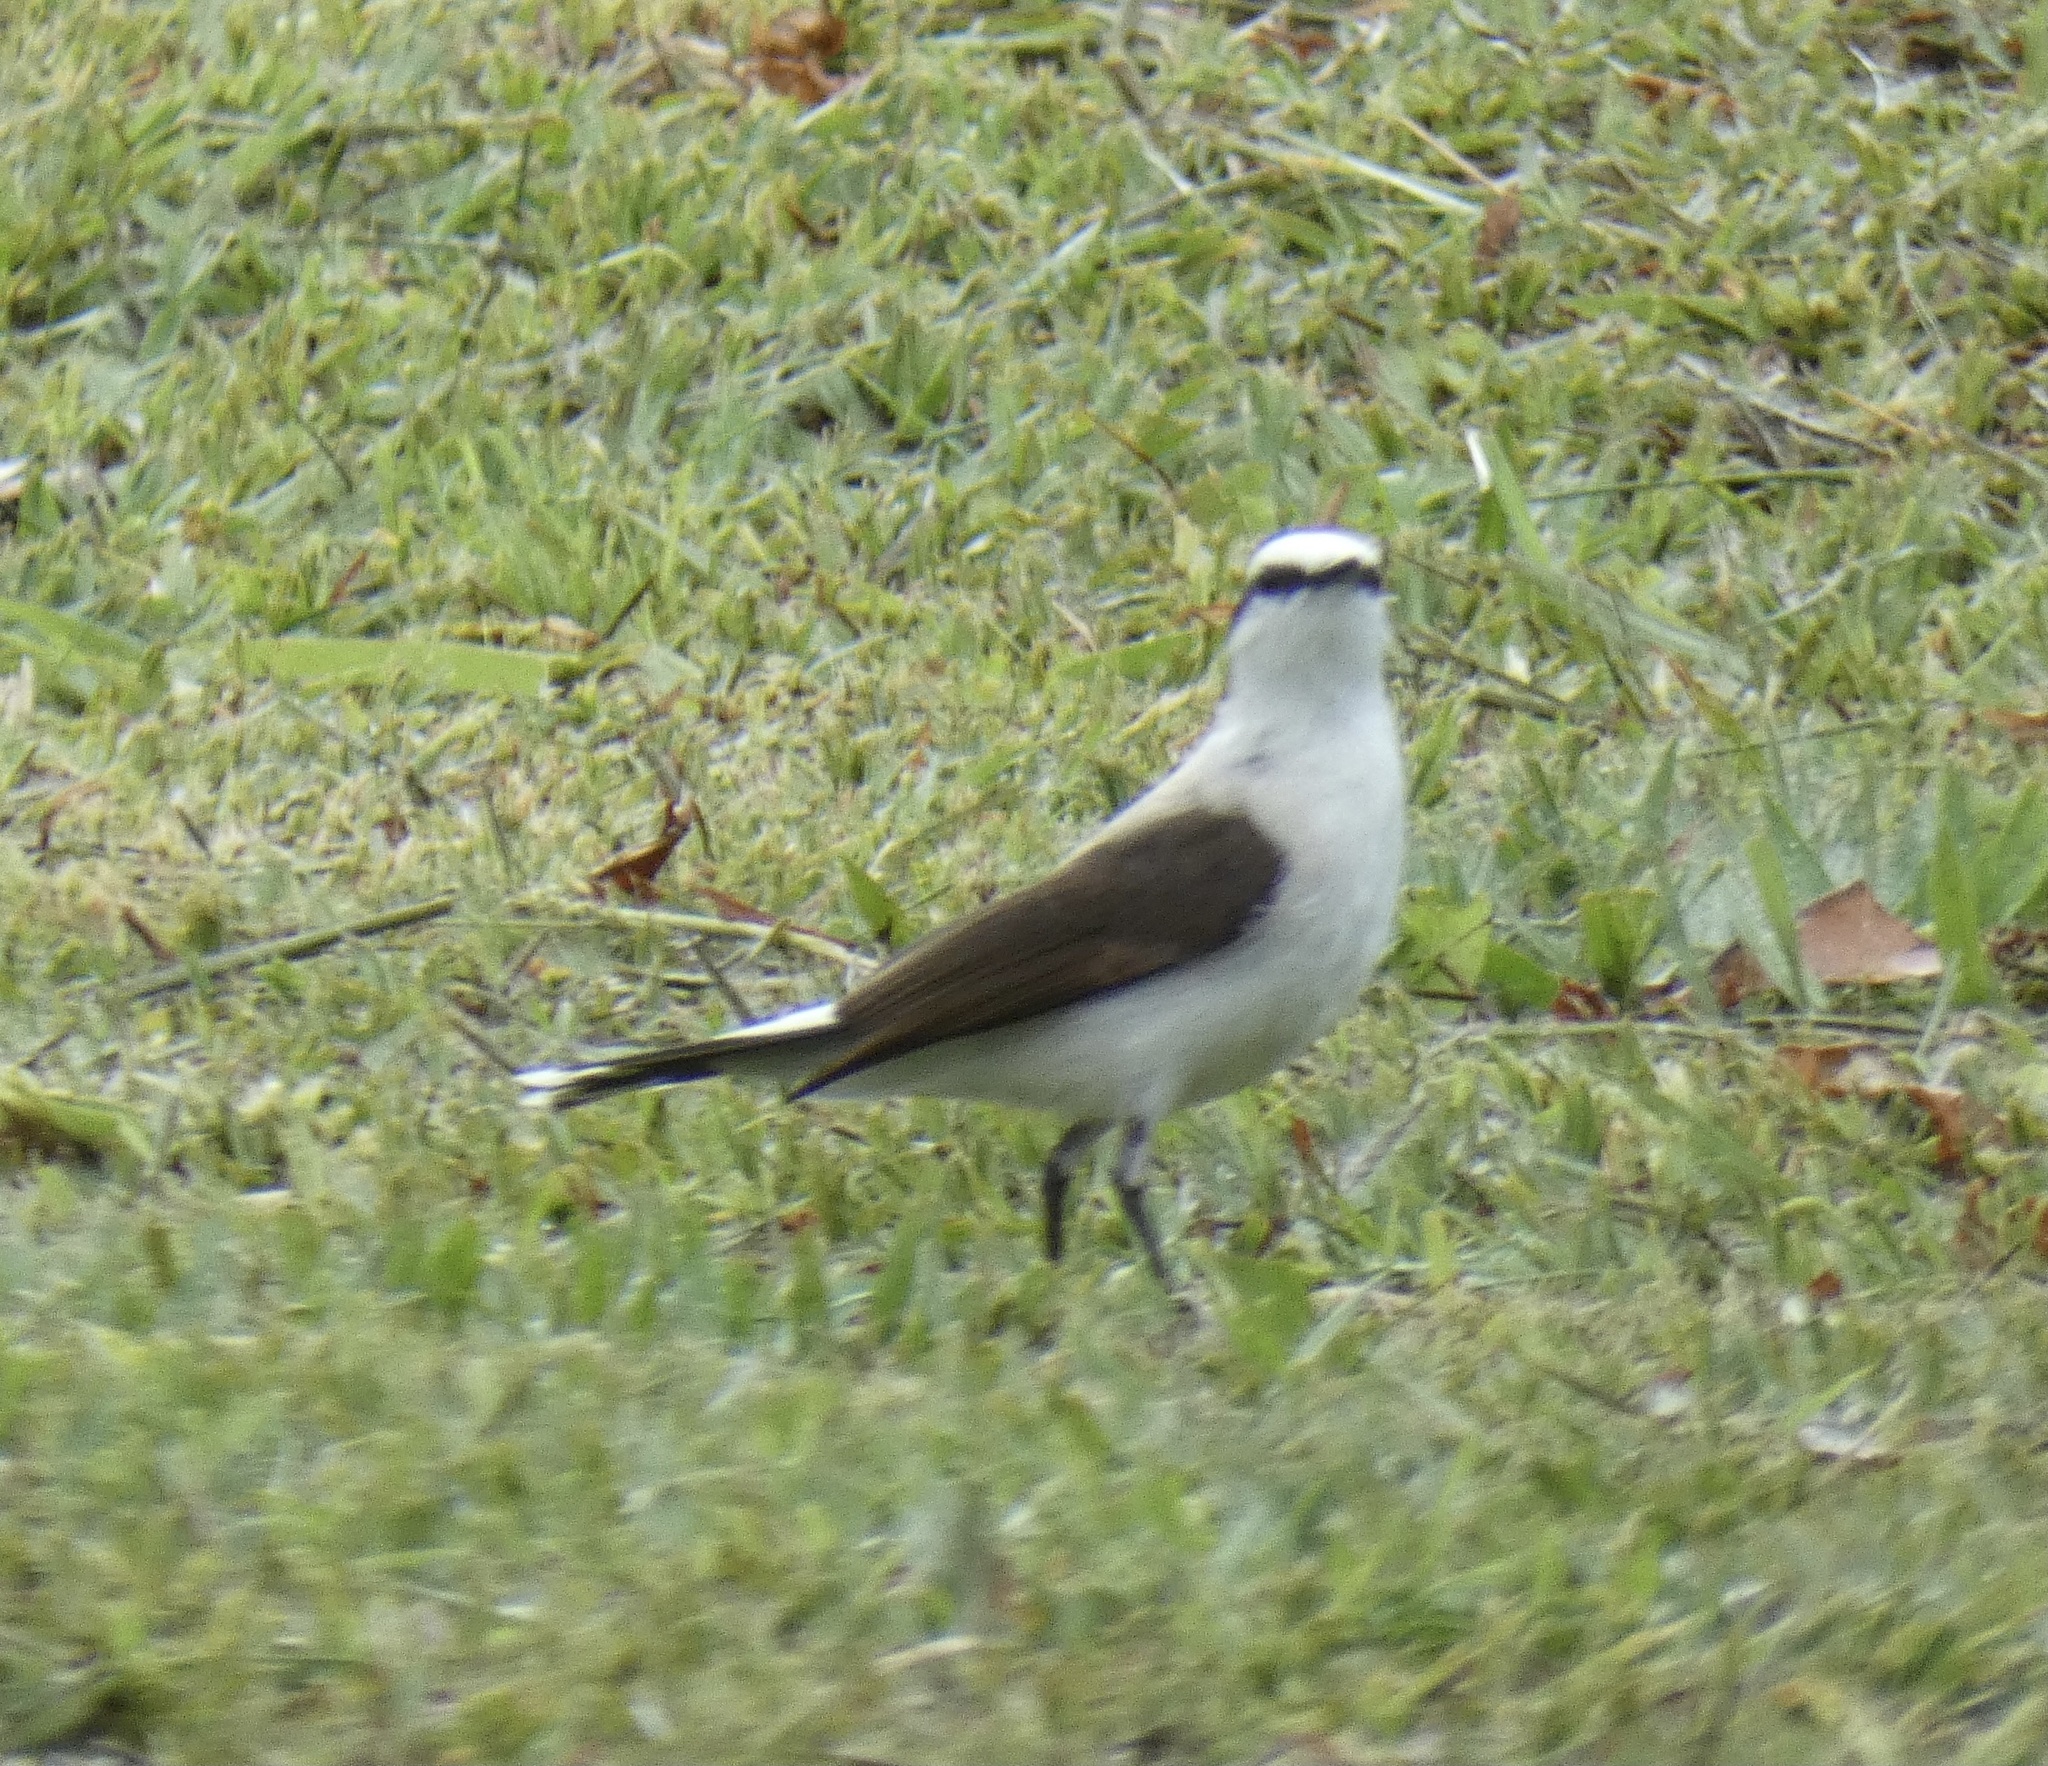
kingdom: Animalia
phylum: Chordata
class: Aves
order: Passeriformes
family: Tyrannidae
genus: Fluvicola
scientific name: Fluvicola nengeta
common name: Masked water tyrant
